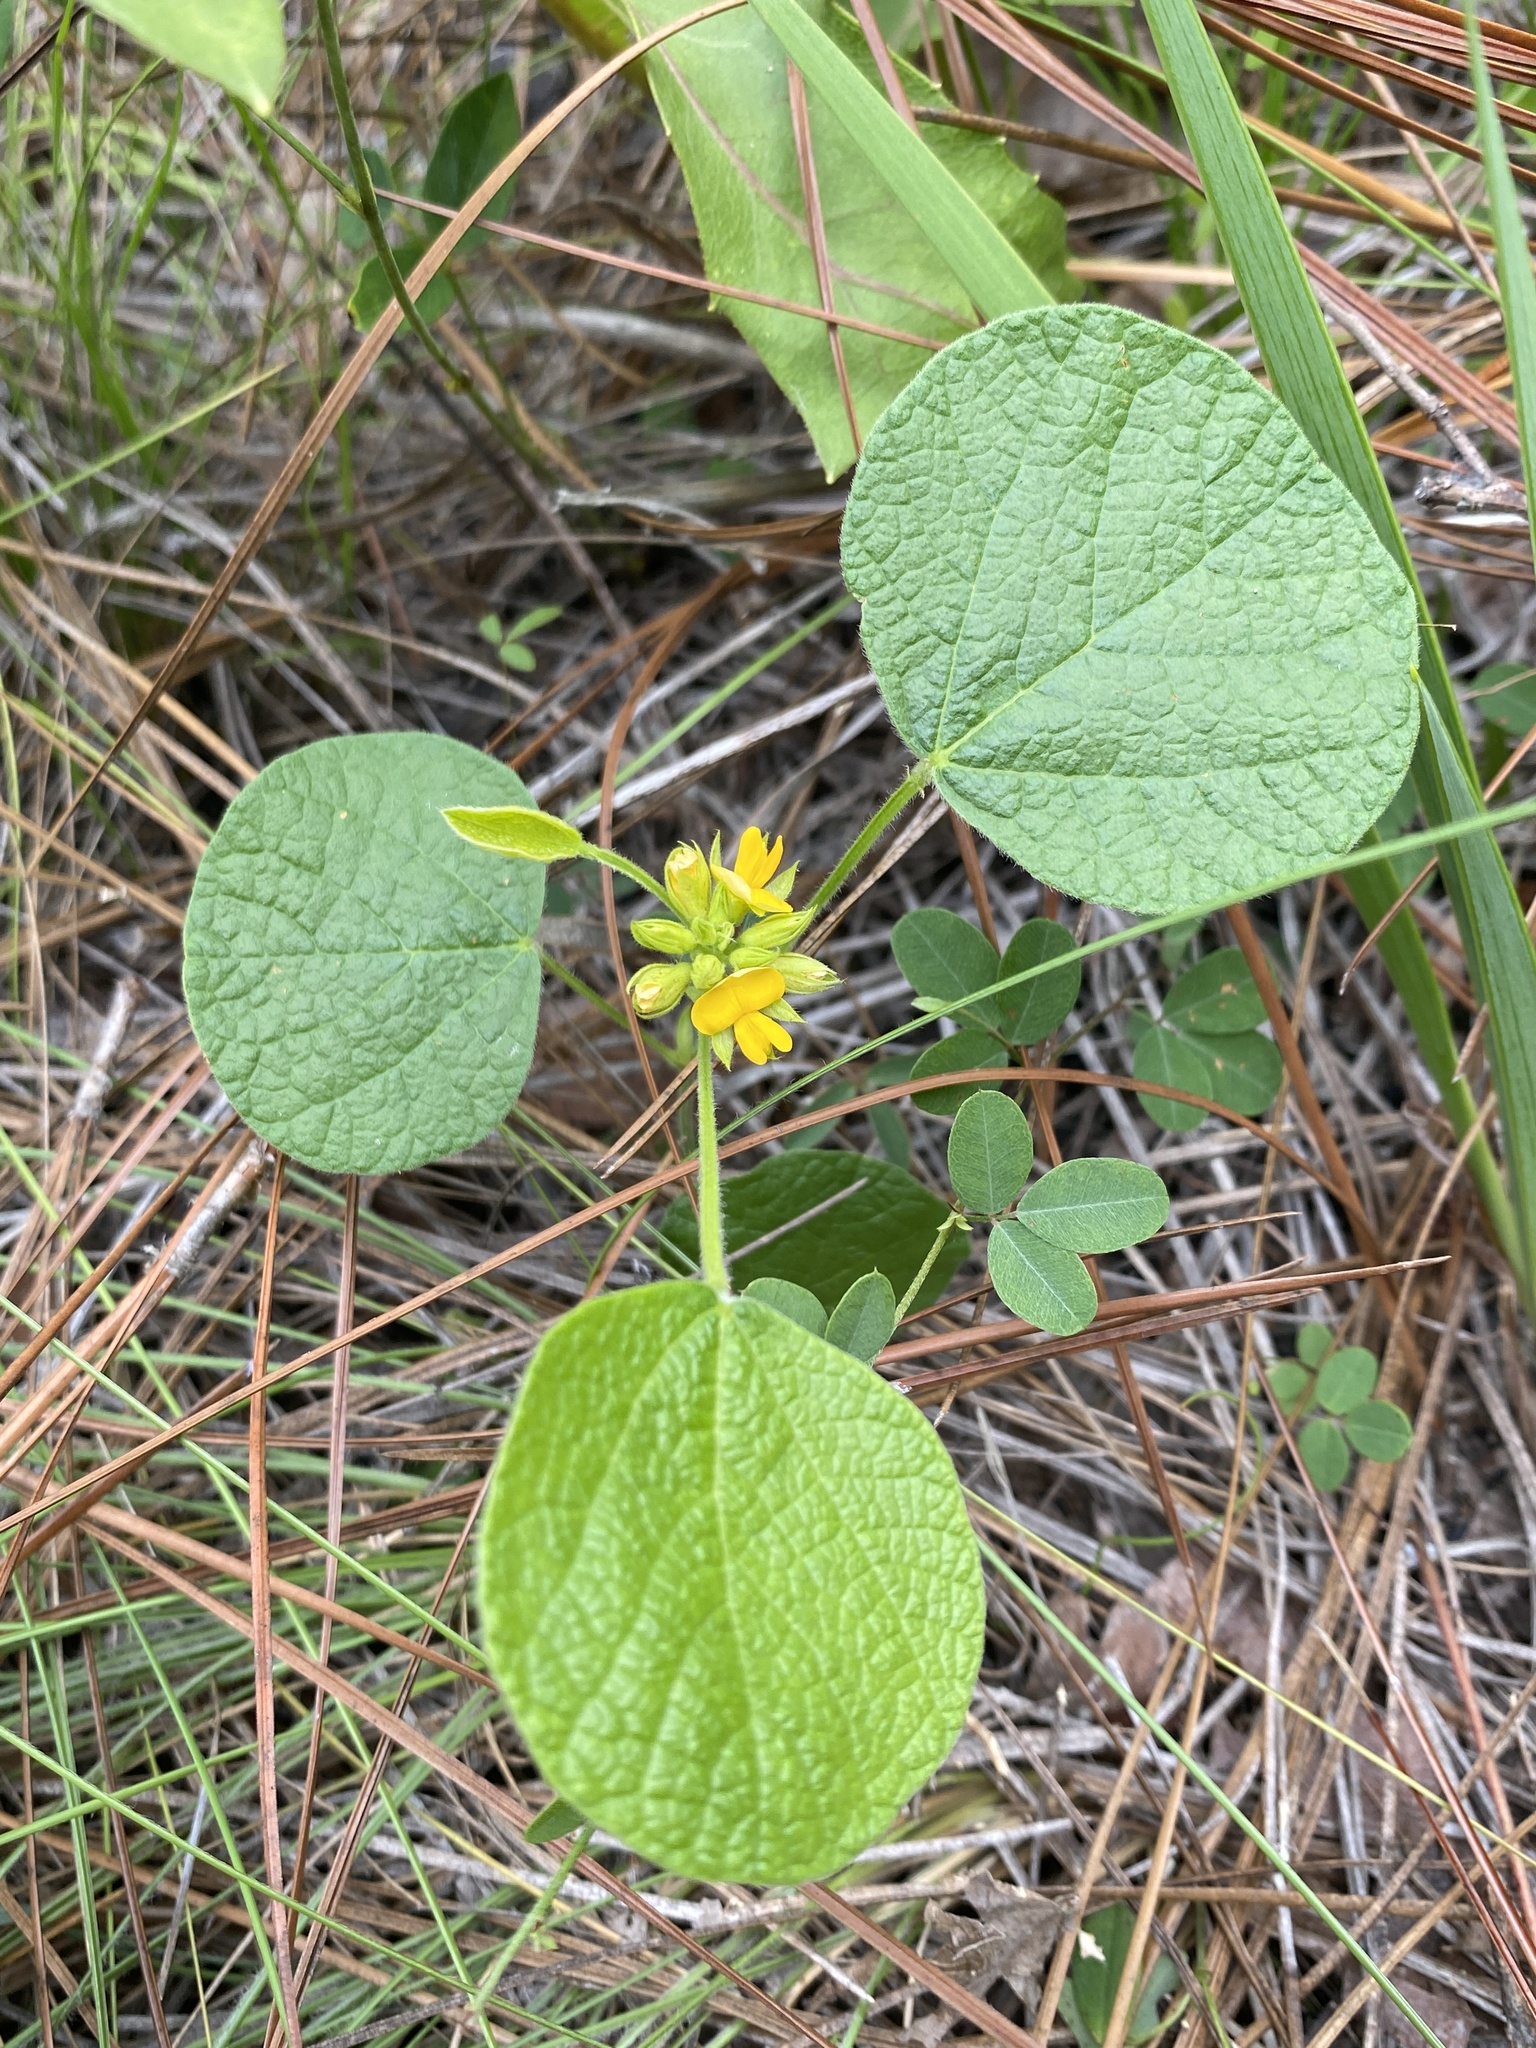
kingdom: Plantae
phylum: Tracheophyta
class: Magnoliopsida
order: Fabales
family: Fabaceae
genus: Rhynchosia
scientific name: Rhynchosia reniformis
